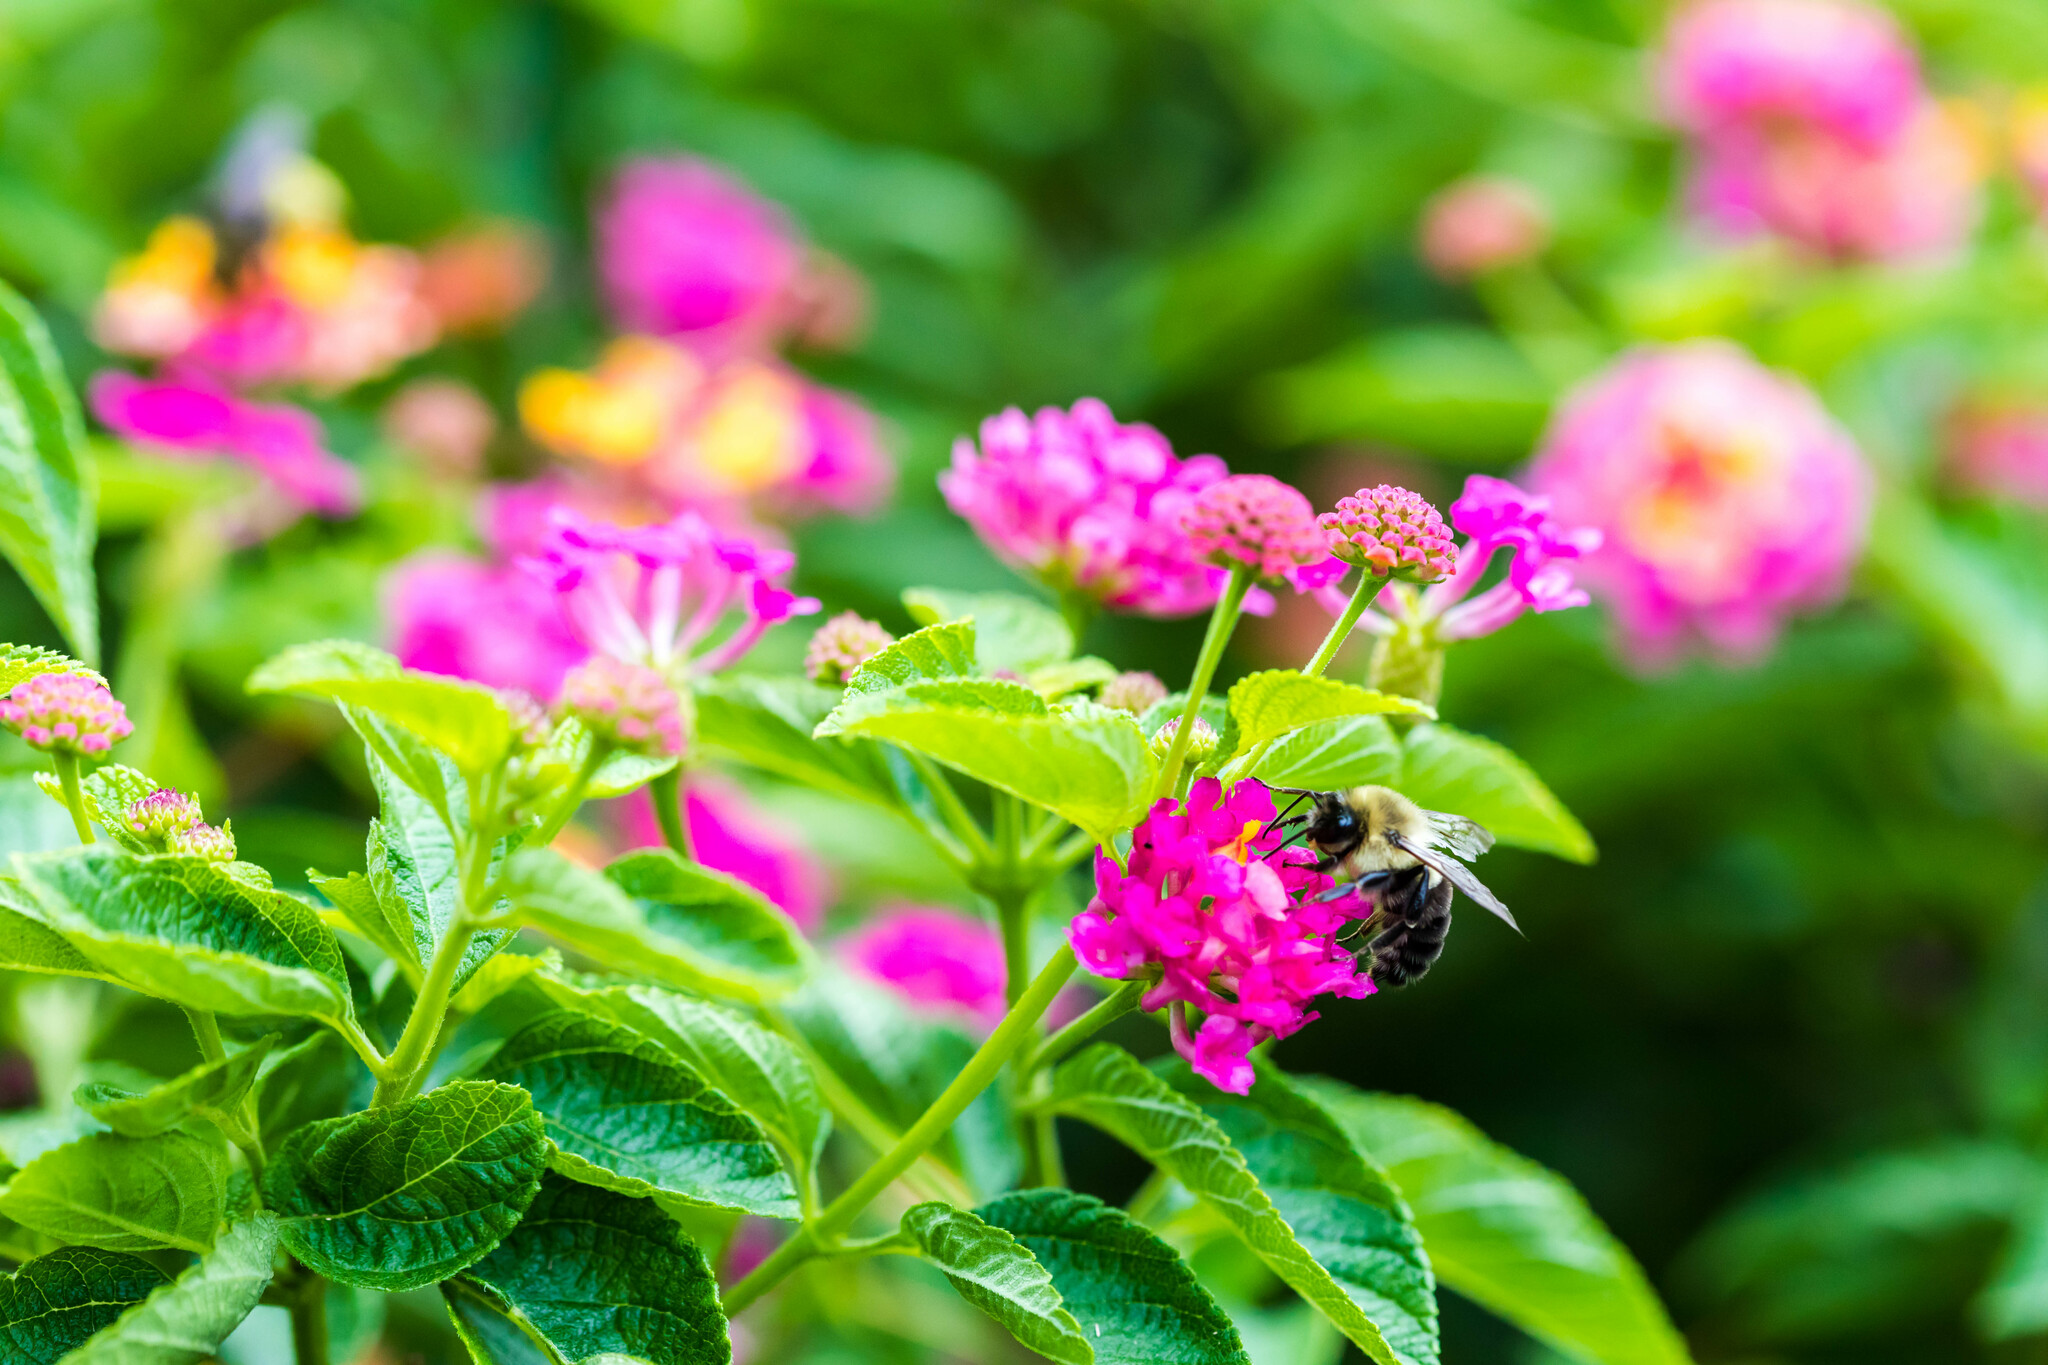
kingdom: Animalia
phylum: Arthropoda
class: Insecta
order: Hymenoptera
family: Apidae
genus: Bombus
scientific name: Bombus impatiens
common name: Common eastern bumble bee
